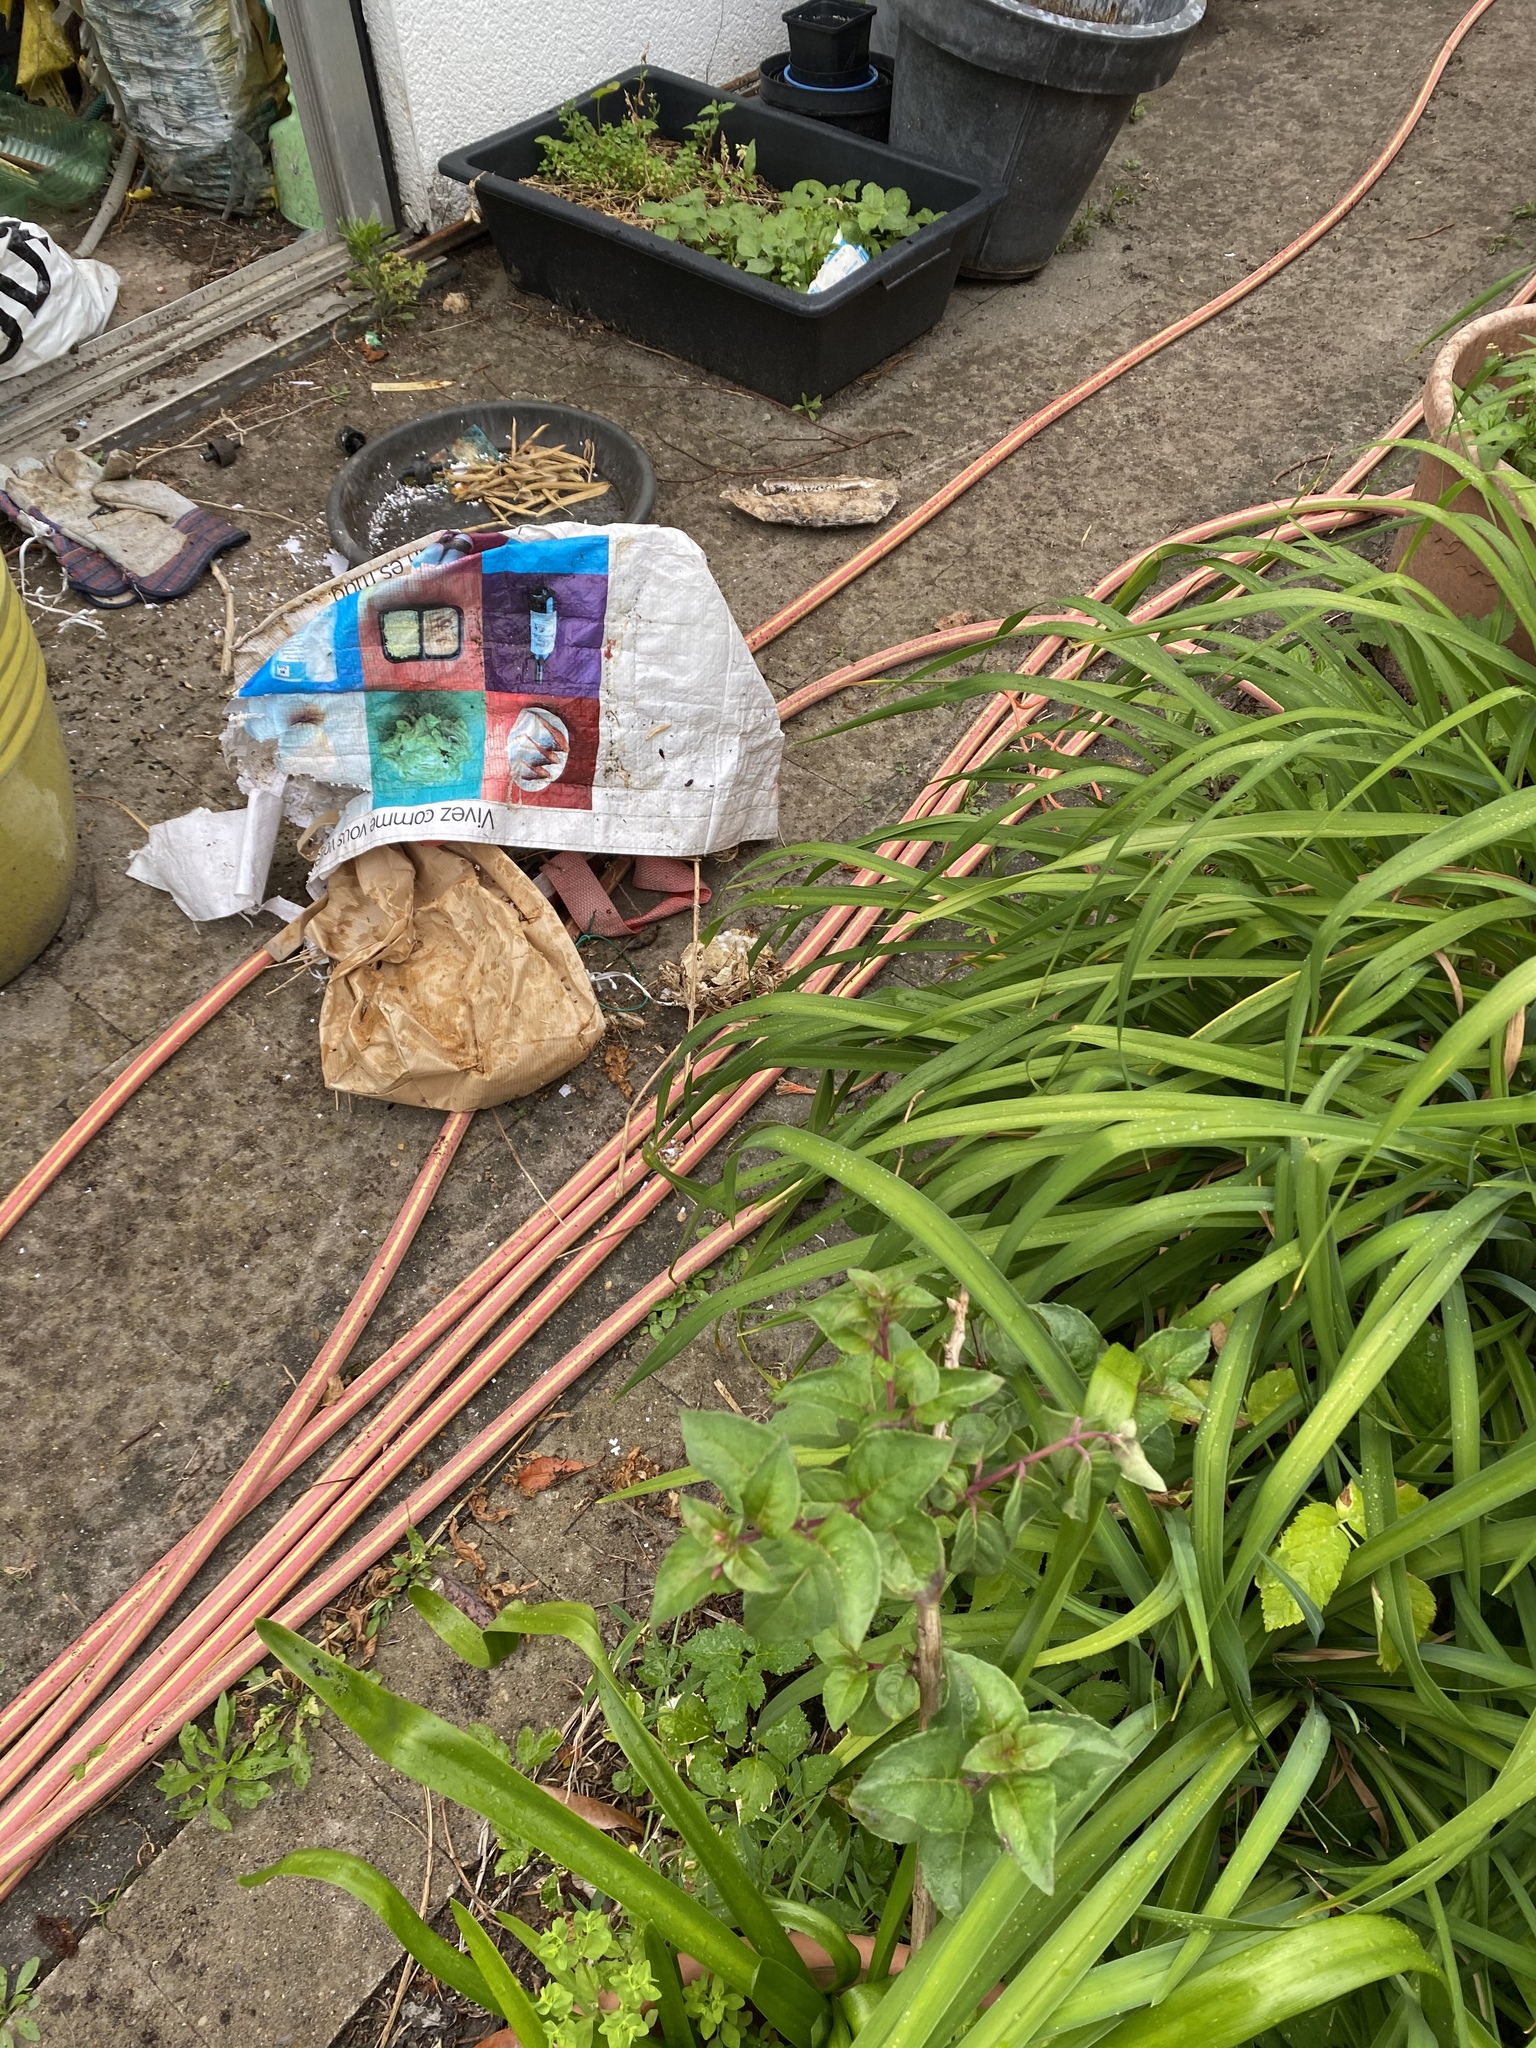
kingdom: Animalia
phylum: Arthropoda
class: Insecta
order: Hymenoptera
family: Vespidae
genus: Vespa
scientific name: Vespa crabro
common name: Hornet
